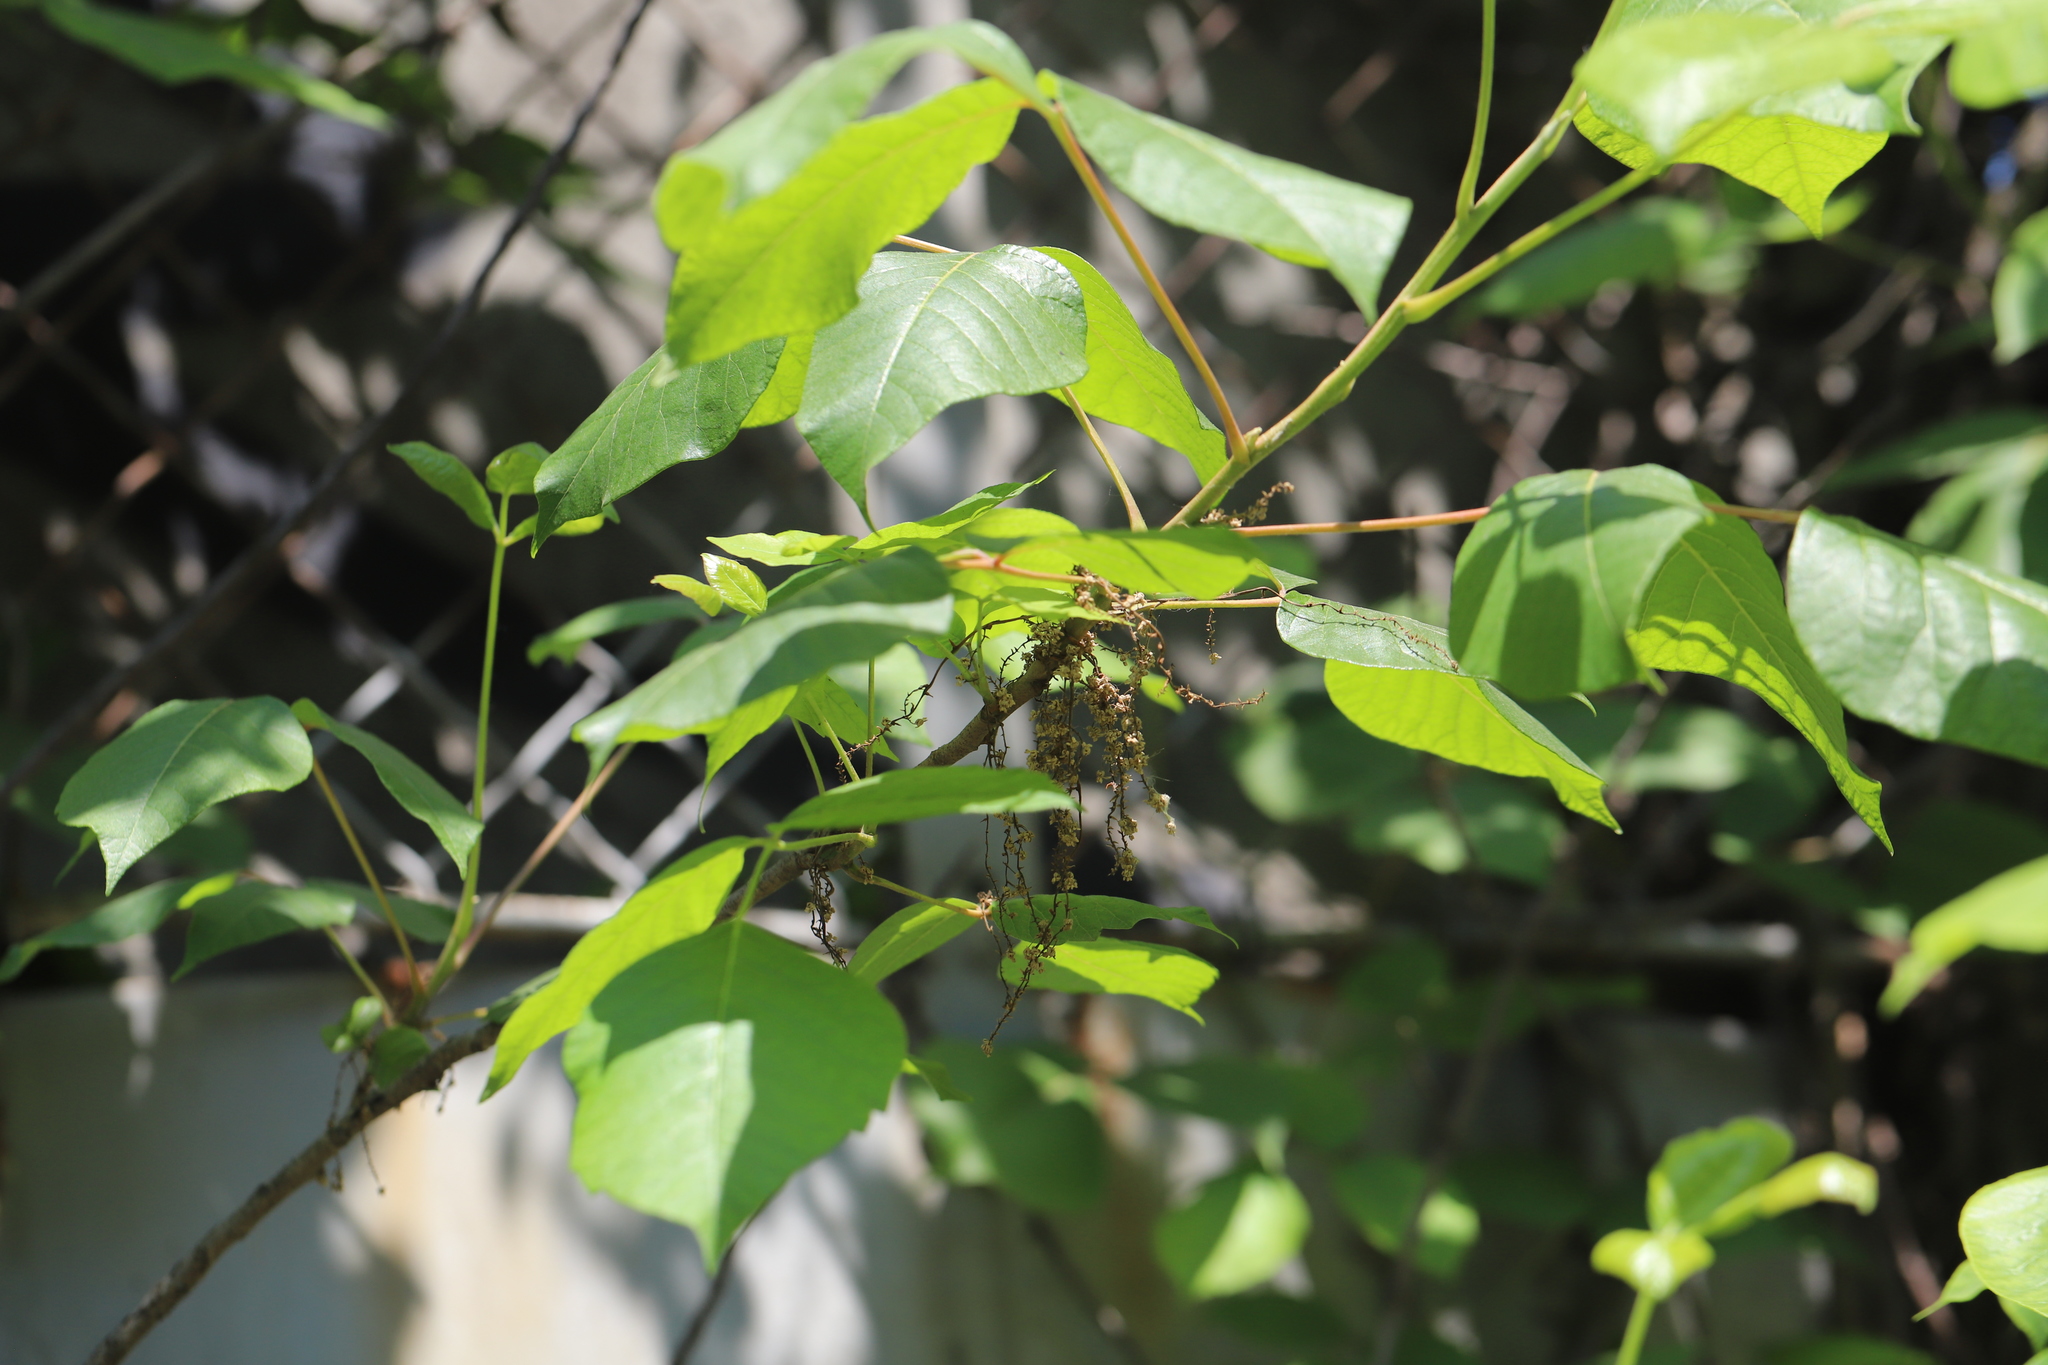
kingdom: Plantae
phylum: Tracheophyta
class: Magnoliopsida
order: Sapindales
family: Anacardiaceae
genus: Toxicodendron
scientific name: Toxicodendron radicans
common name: Poison ivy
